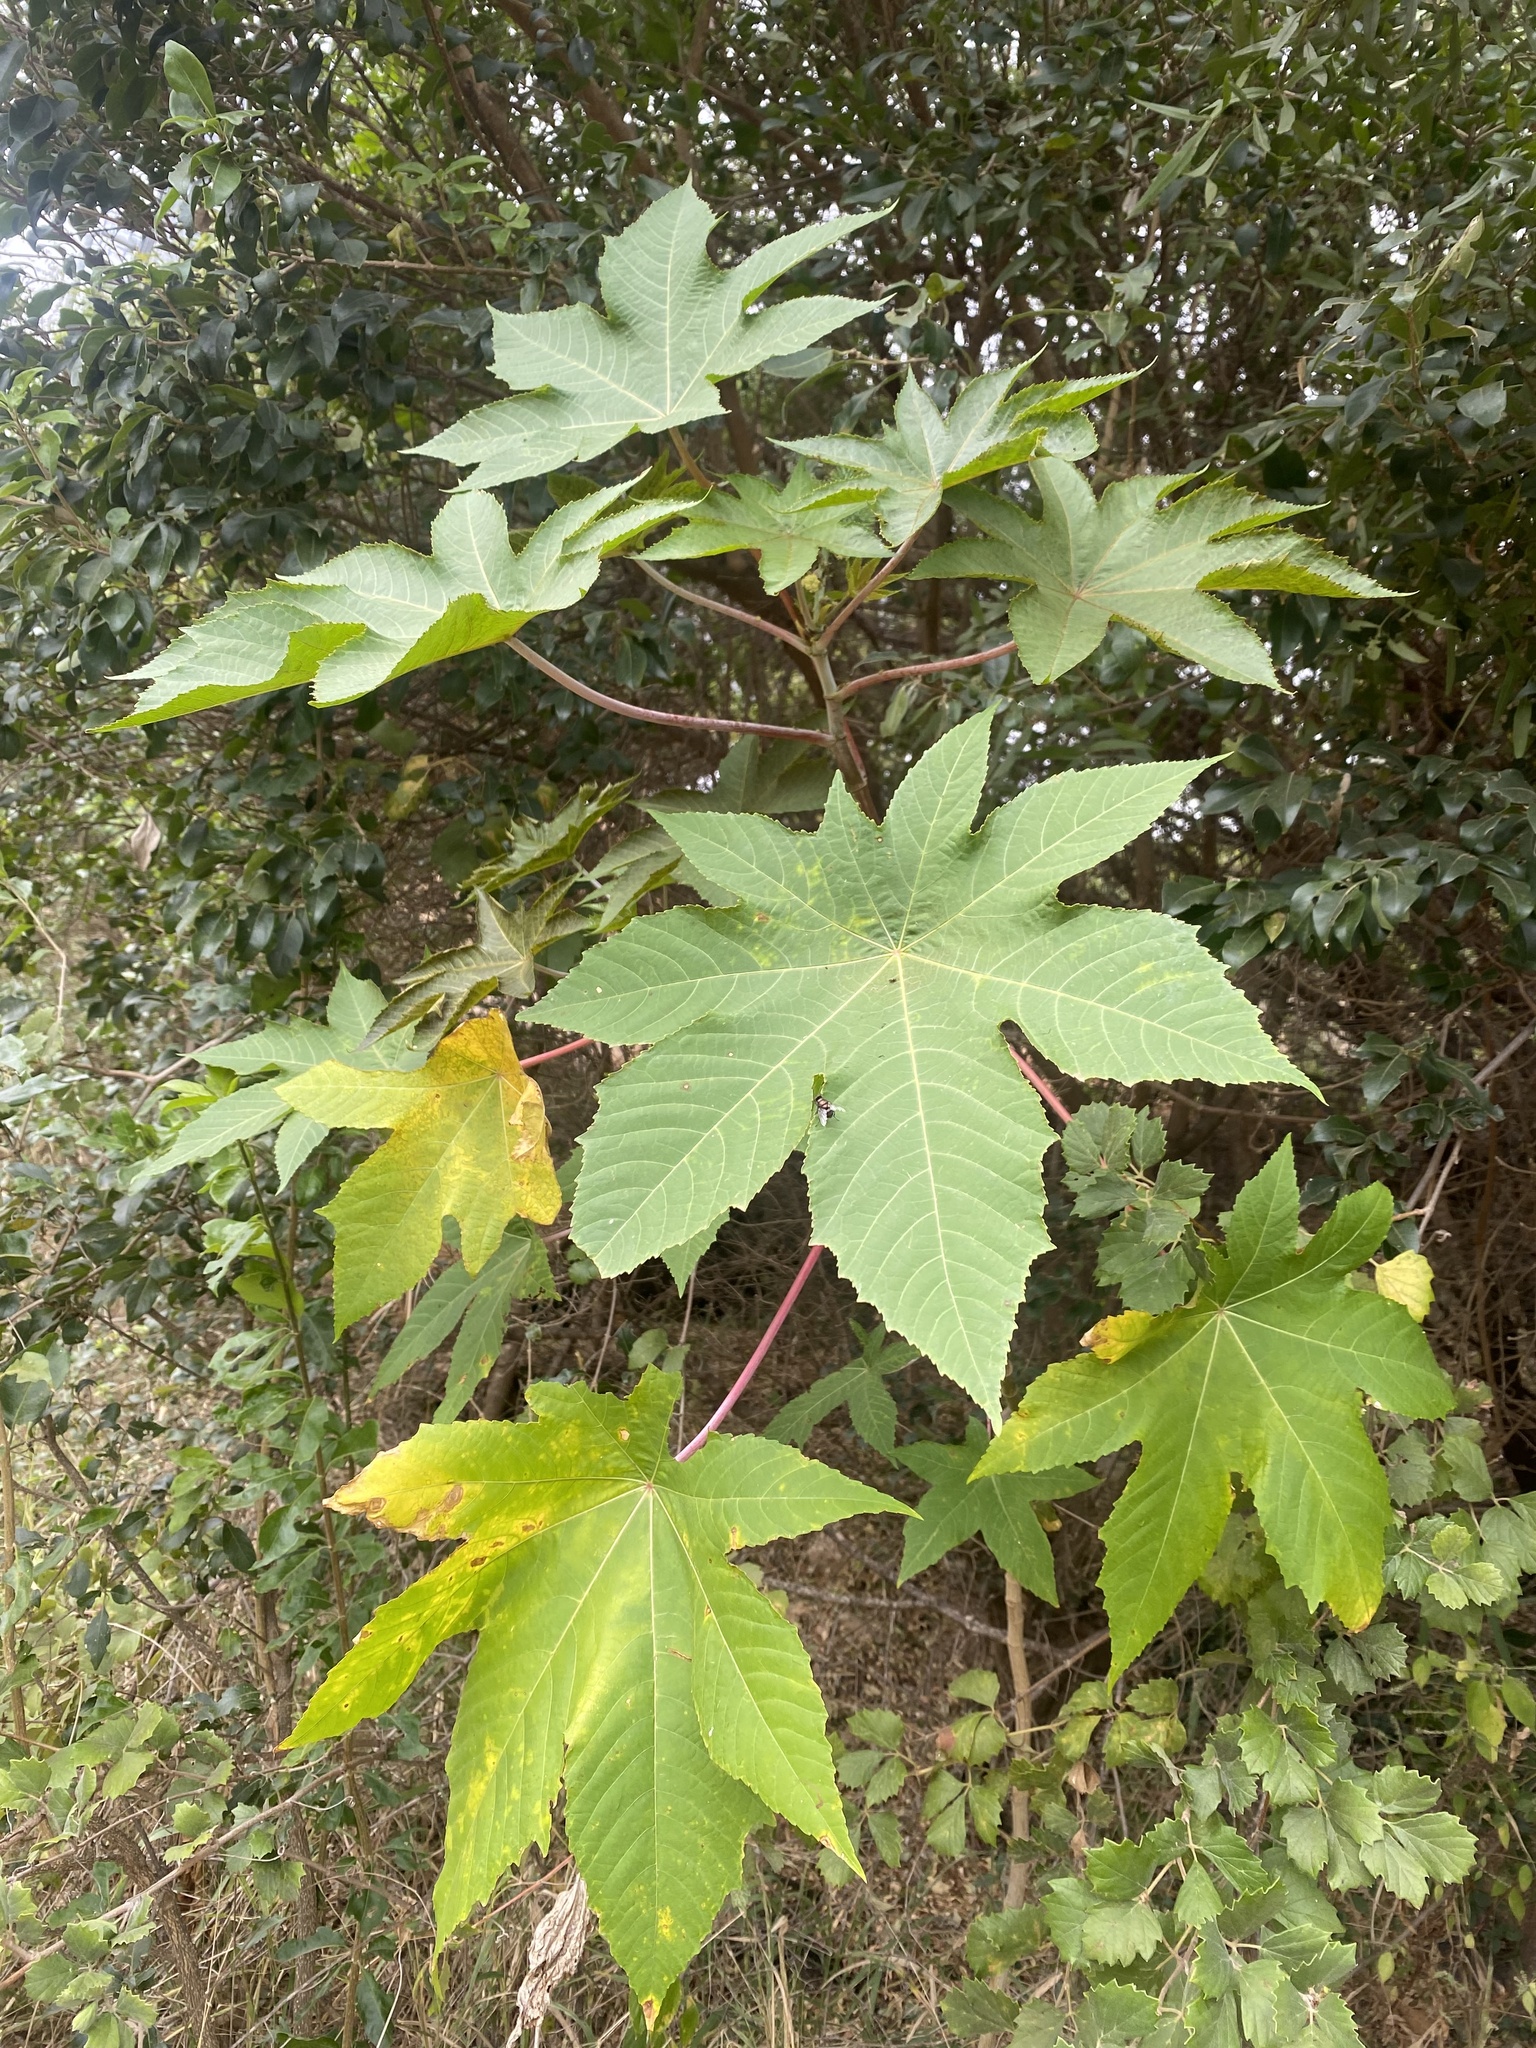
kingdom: Plantae
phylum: Tracheophyta
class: Magnoliopsida
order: Malpighiales
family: Euphorbiaceae
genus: Ricinus
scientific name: Ricinus communis
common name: Castor-oil-plant
